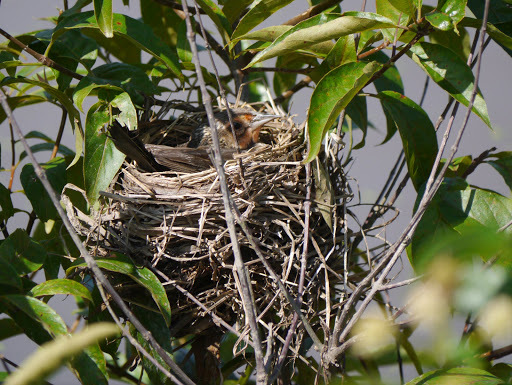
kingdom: Animalia
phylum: Chordata
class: Aves
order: Passeriformes
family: Icteridae
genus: Agelaius
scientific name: Agelaius phoeniceus
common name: Red-winged blackbird
